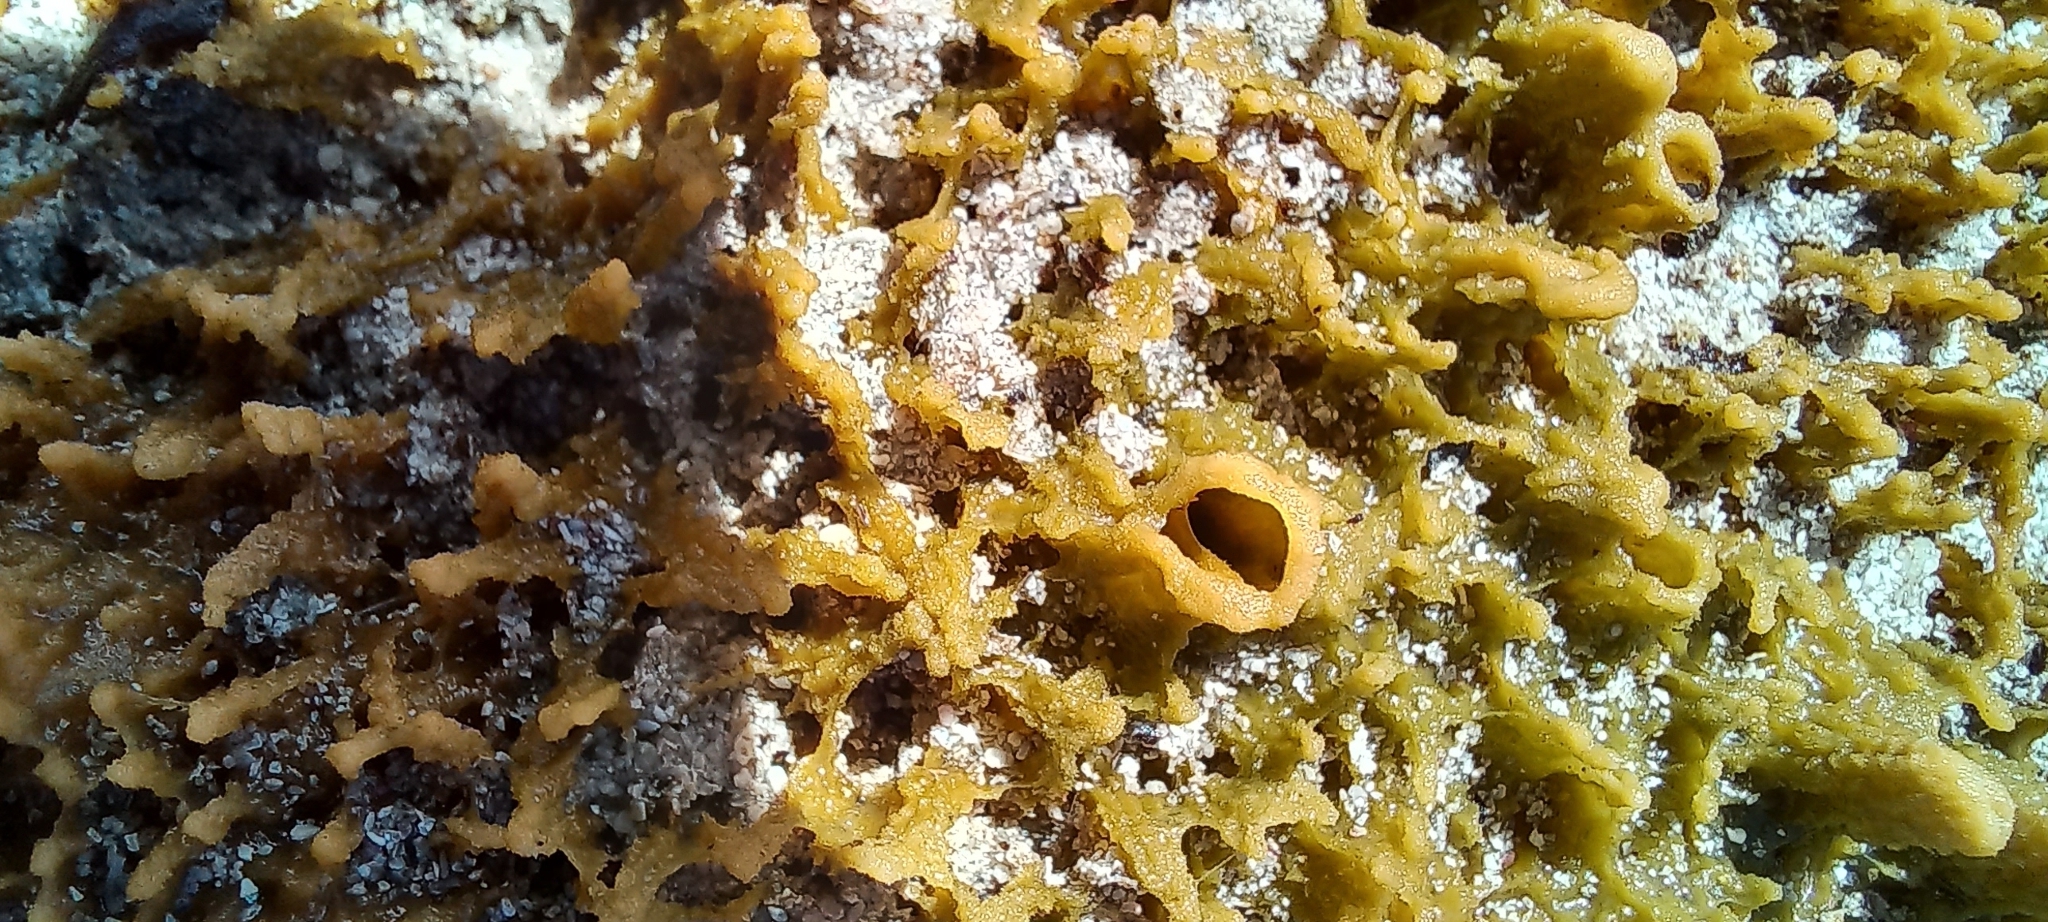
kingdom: Animalia
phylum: Porifera
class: Demospongiae
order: Suberitida
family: Halichondriidae
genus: Hymeniacidon
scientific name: Hymeniacidon perlevis
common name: Crumb-of-bread sponge
